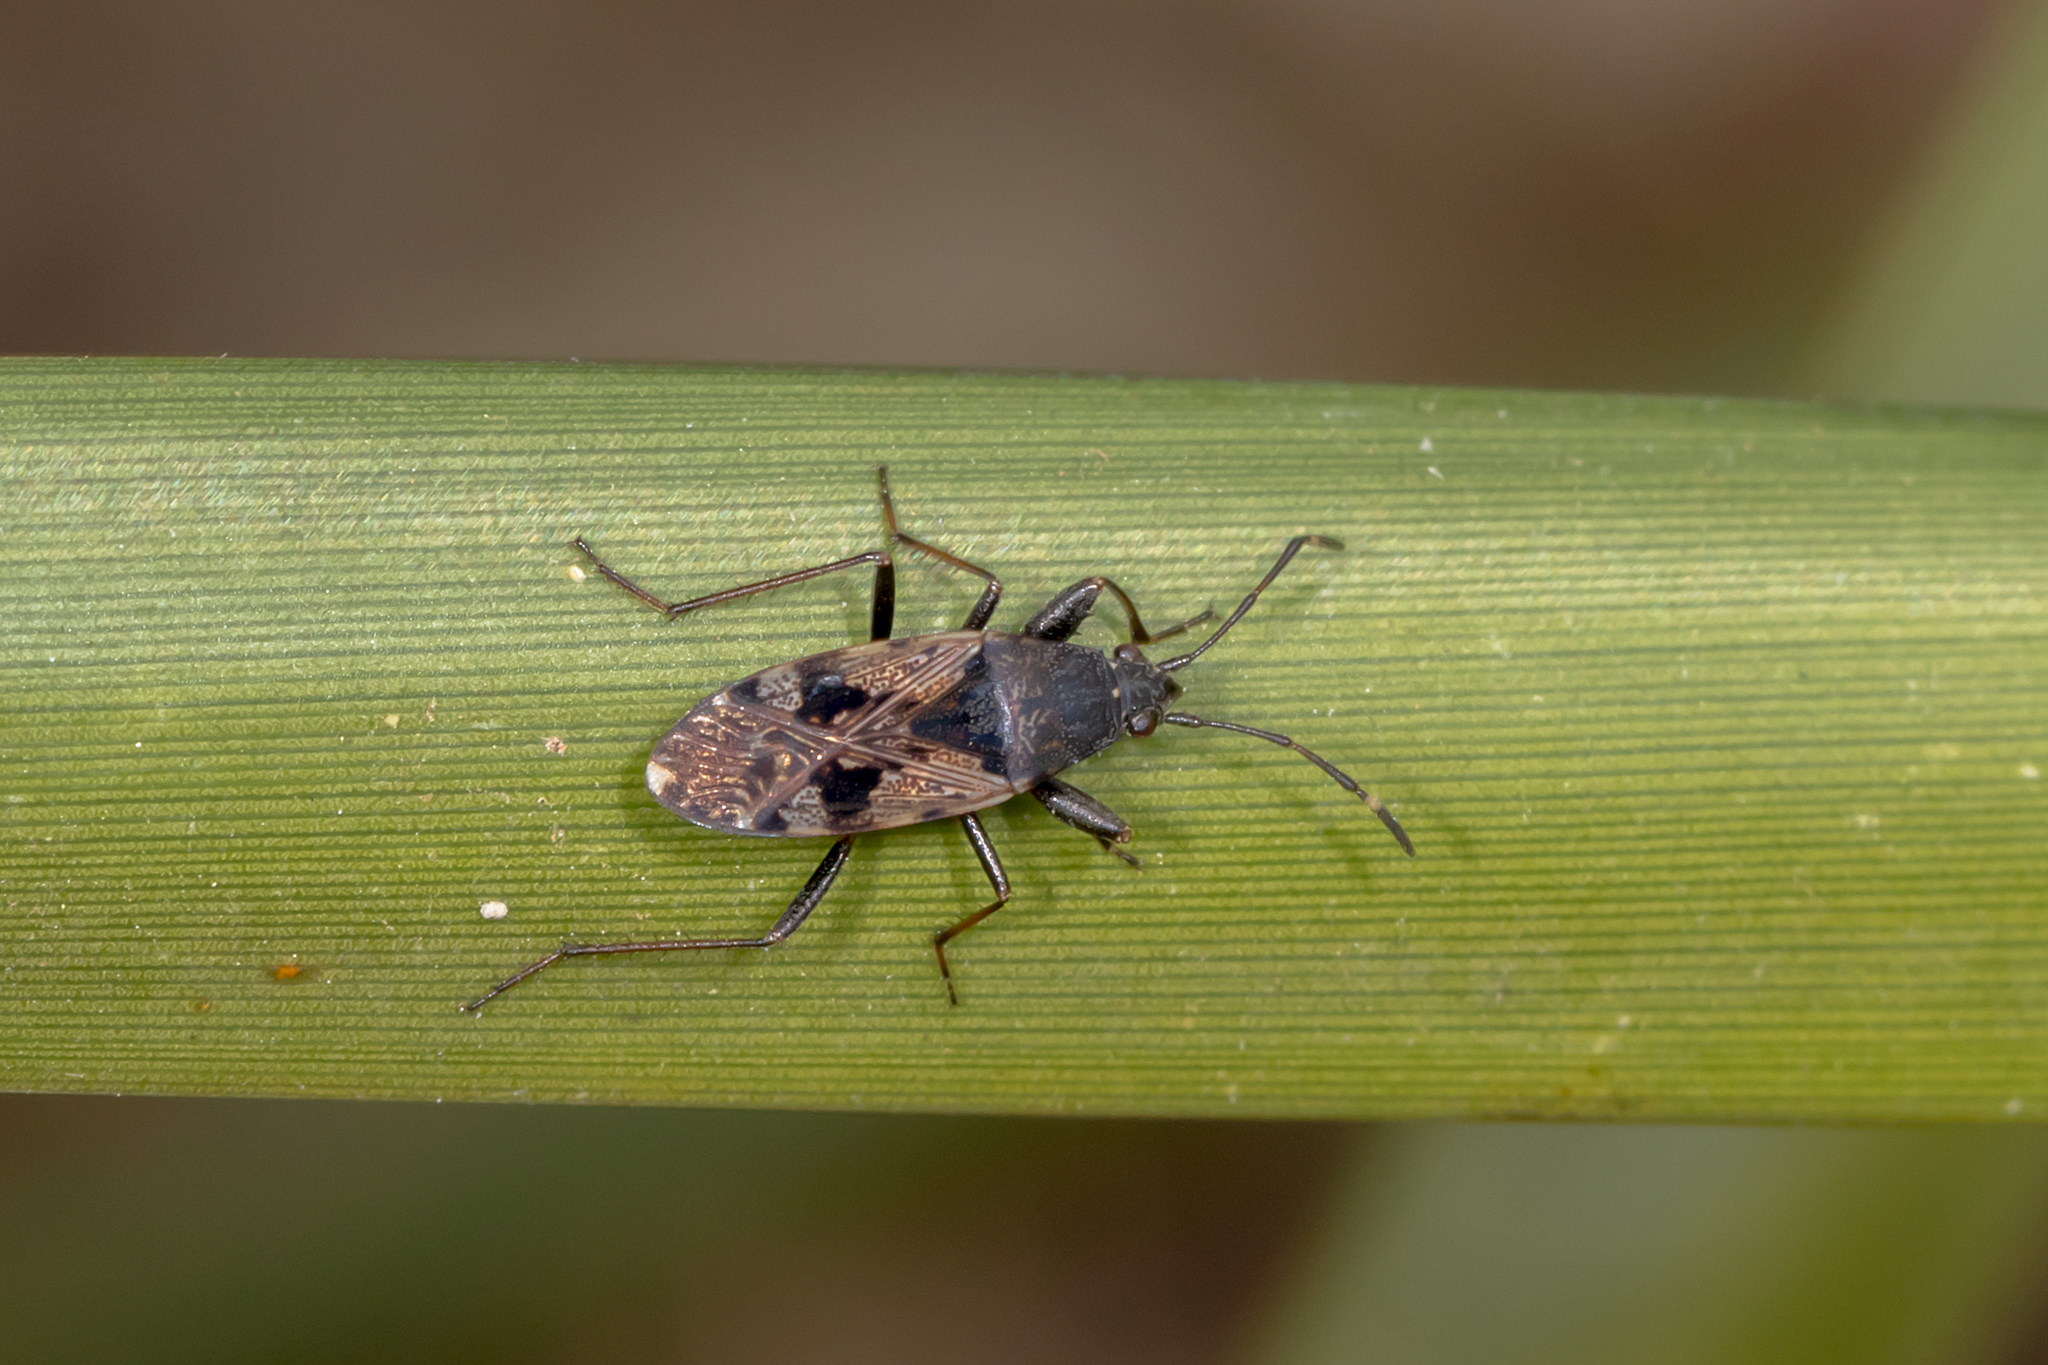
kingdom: Animalia
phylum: Arthropoda
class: Insecta
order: Hemiptera
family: Rhyparochromidae
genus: Euander
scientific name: Euander lacertosus
